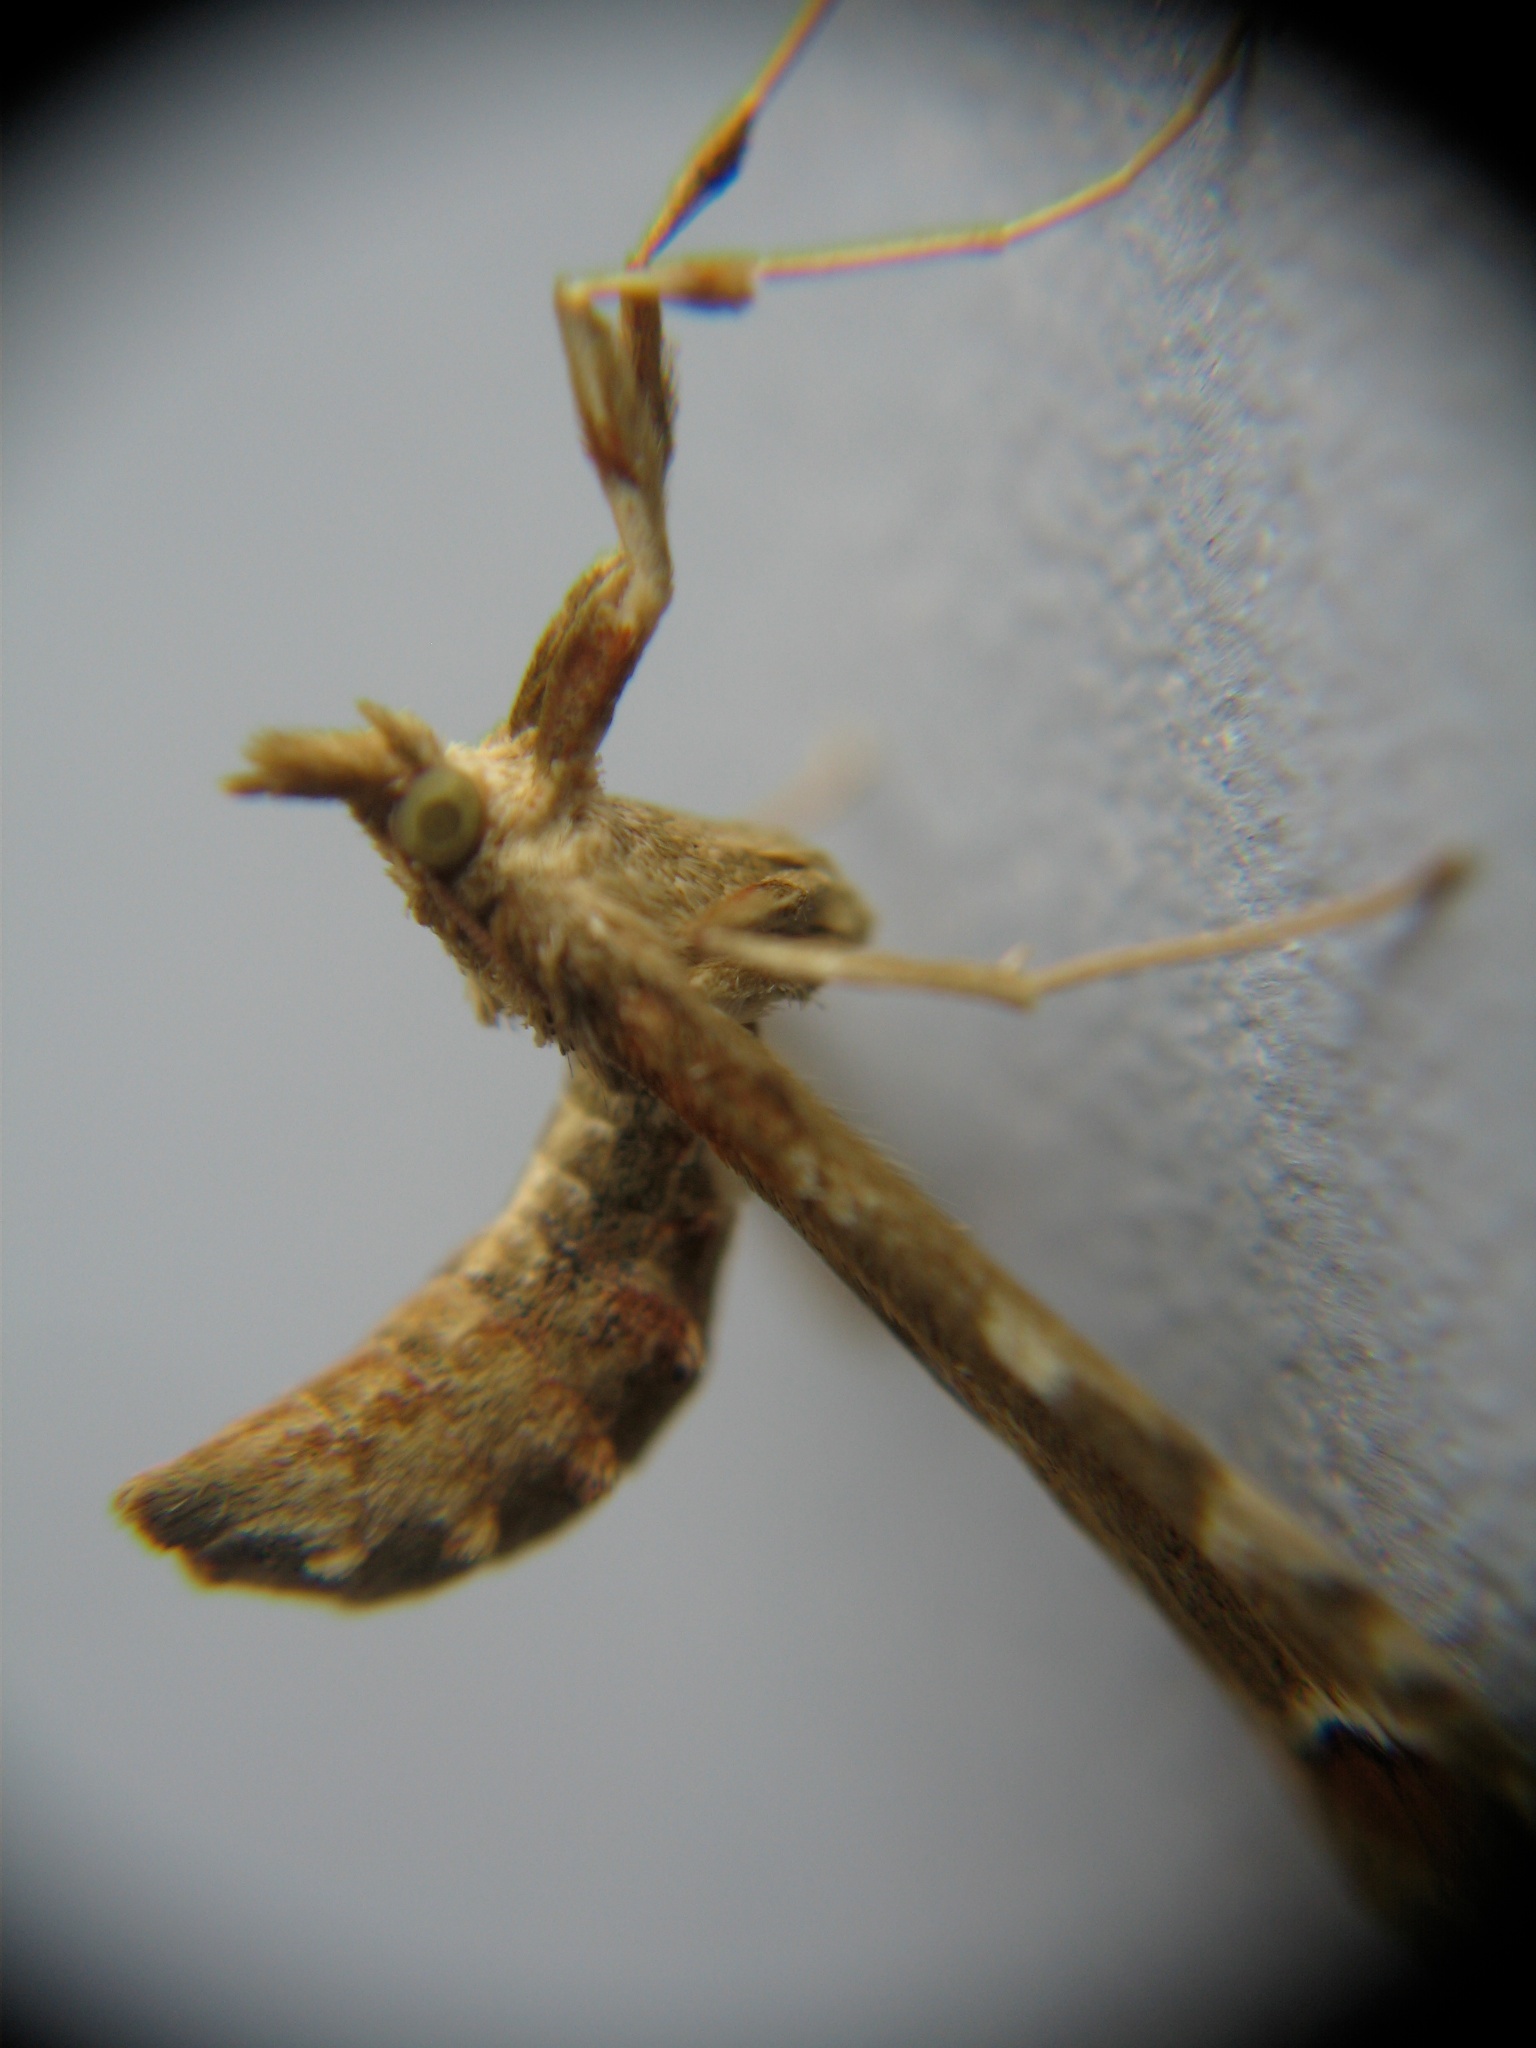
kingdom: Animalia
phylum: Arthropoda
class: Insecta
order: Lepidoptera
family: Crambidae
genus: Sceliodes
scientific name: Sceliodes cordalis
